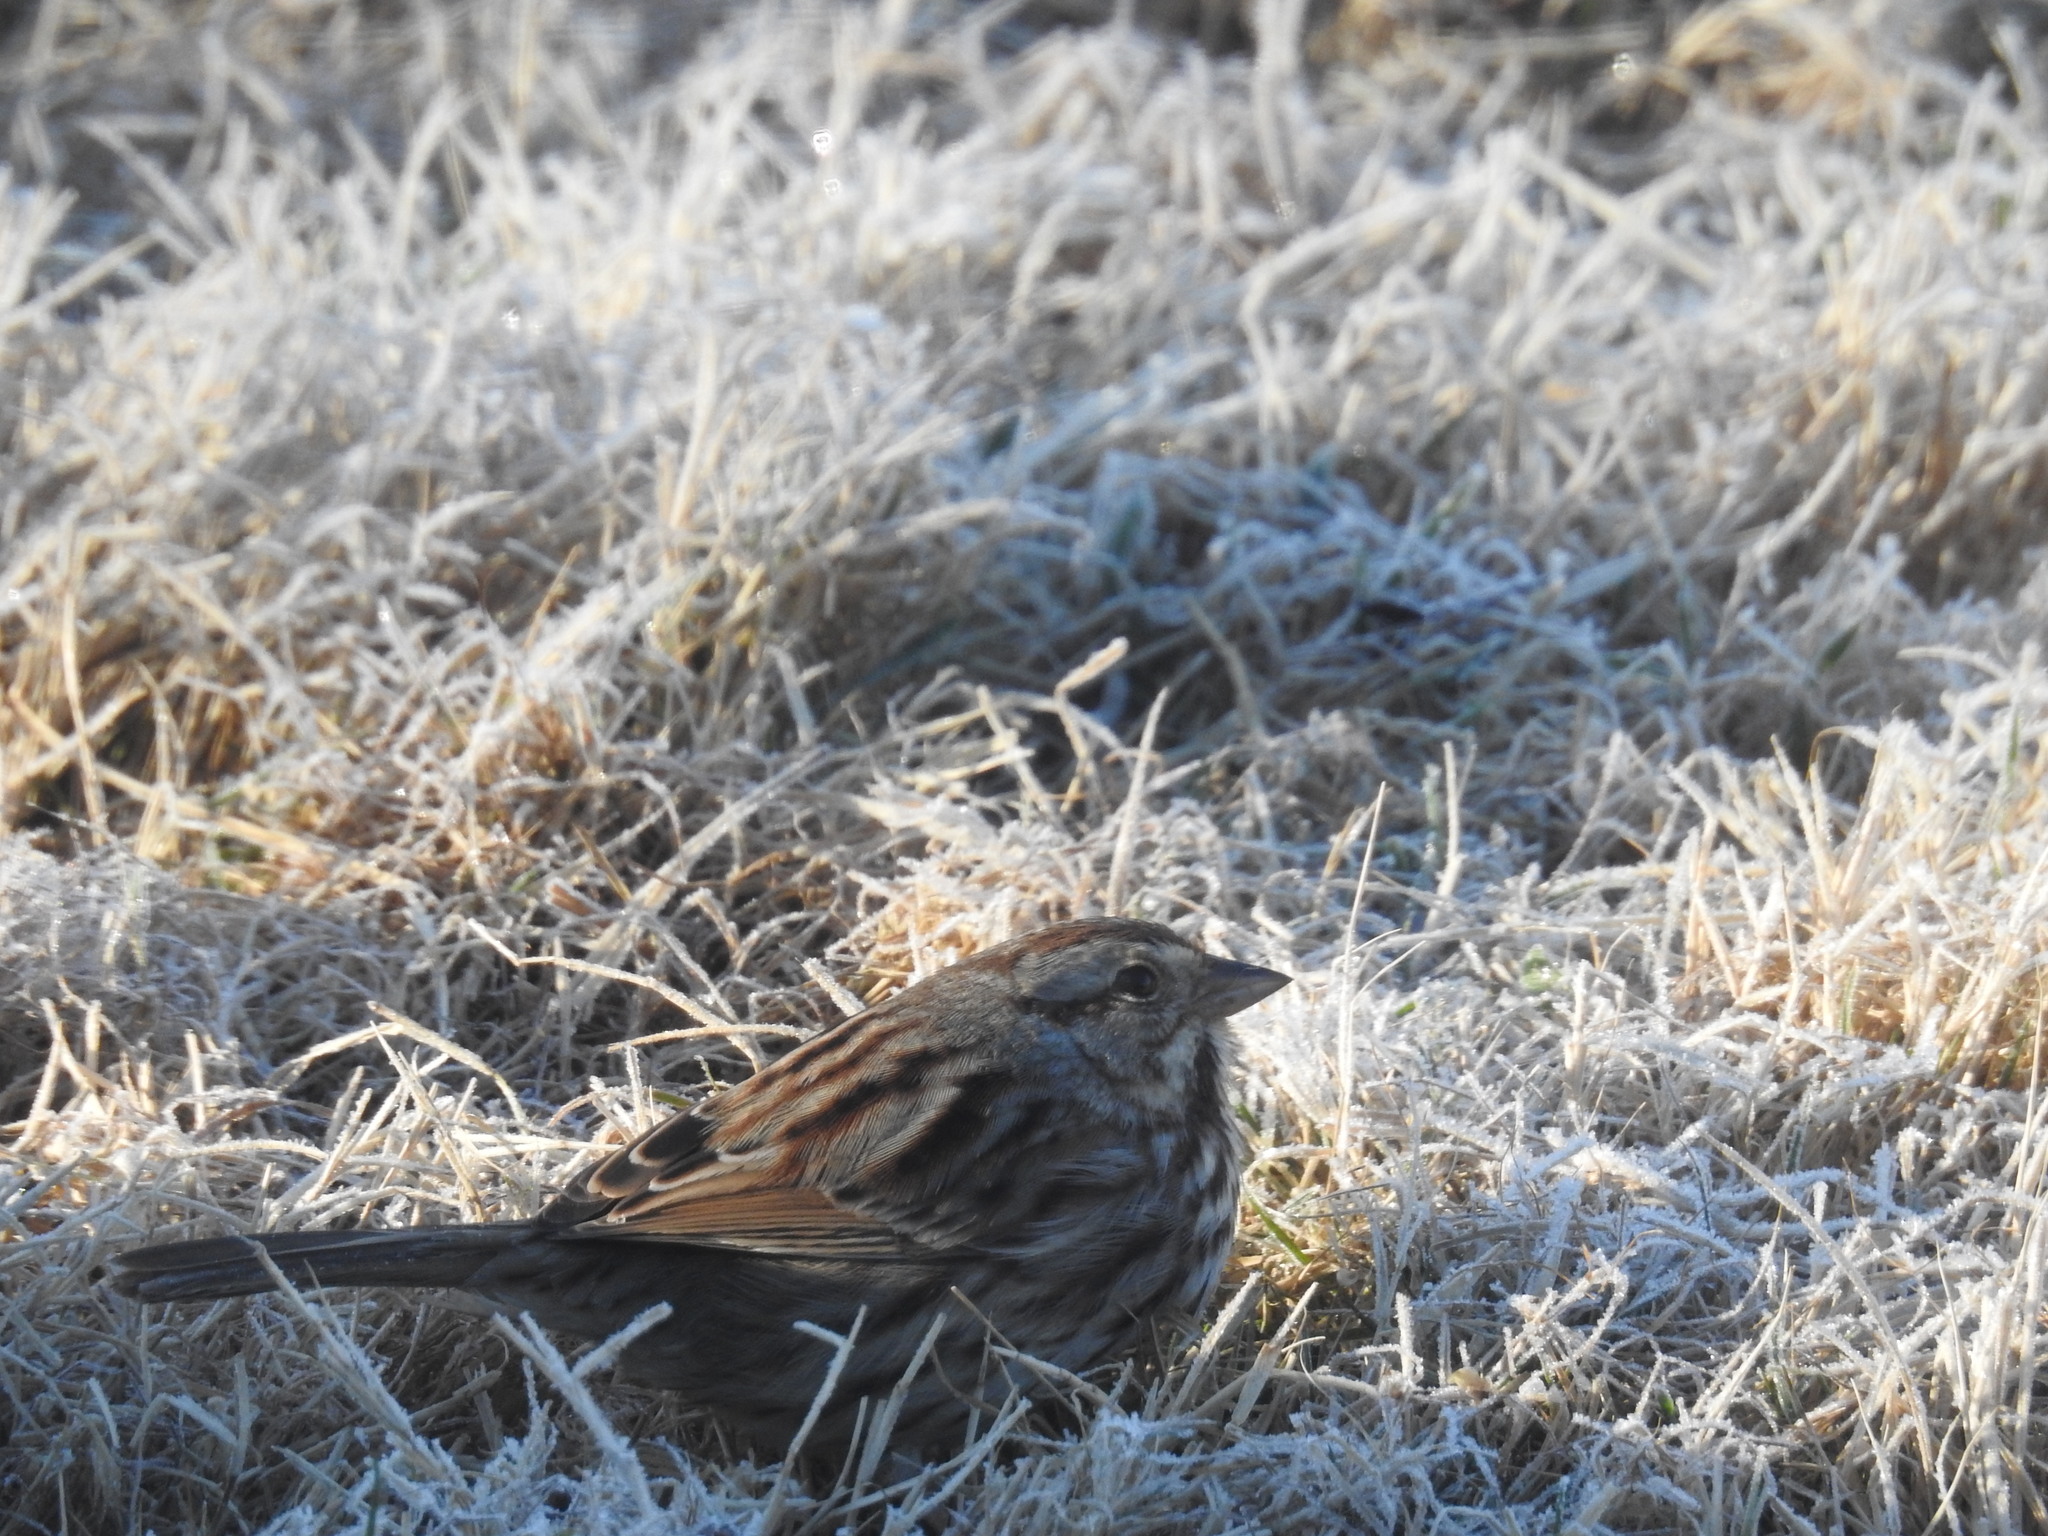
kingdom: Animalia
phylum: Chordata
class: Aves
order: Passeriformes
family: Passerellidae
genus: Melospiza
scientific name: Melospiza melodia
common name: Song sparrow
